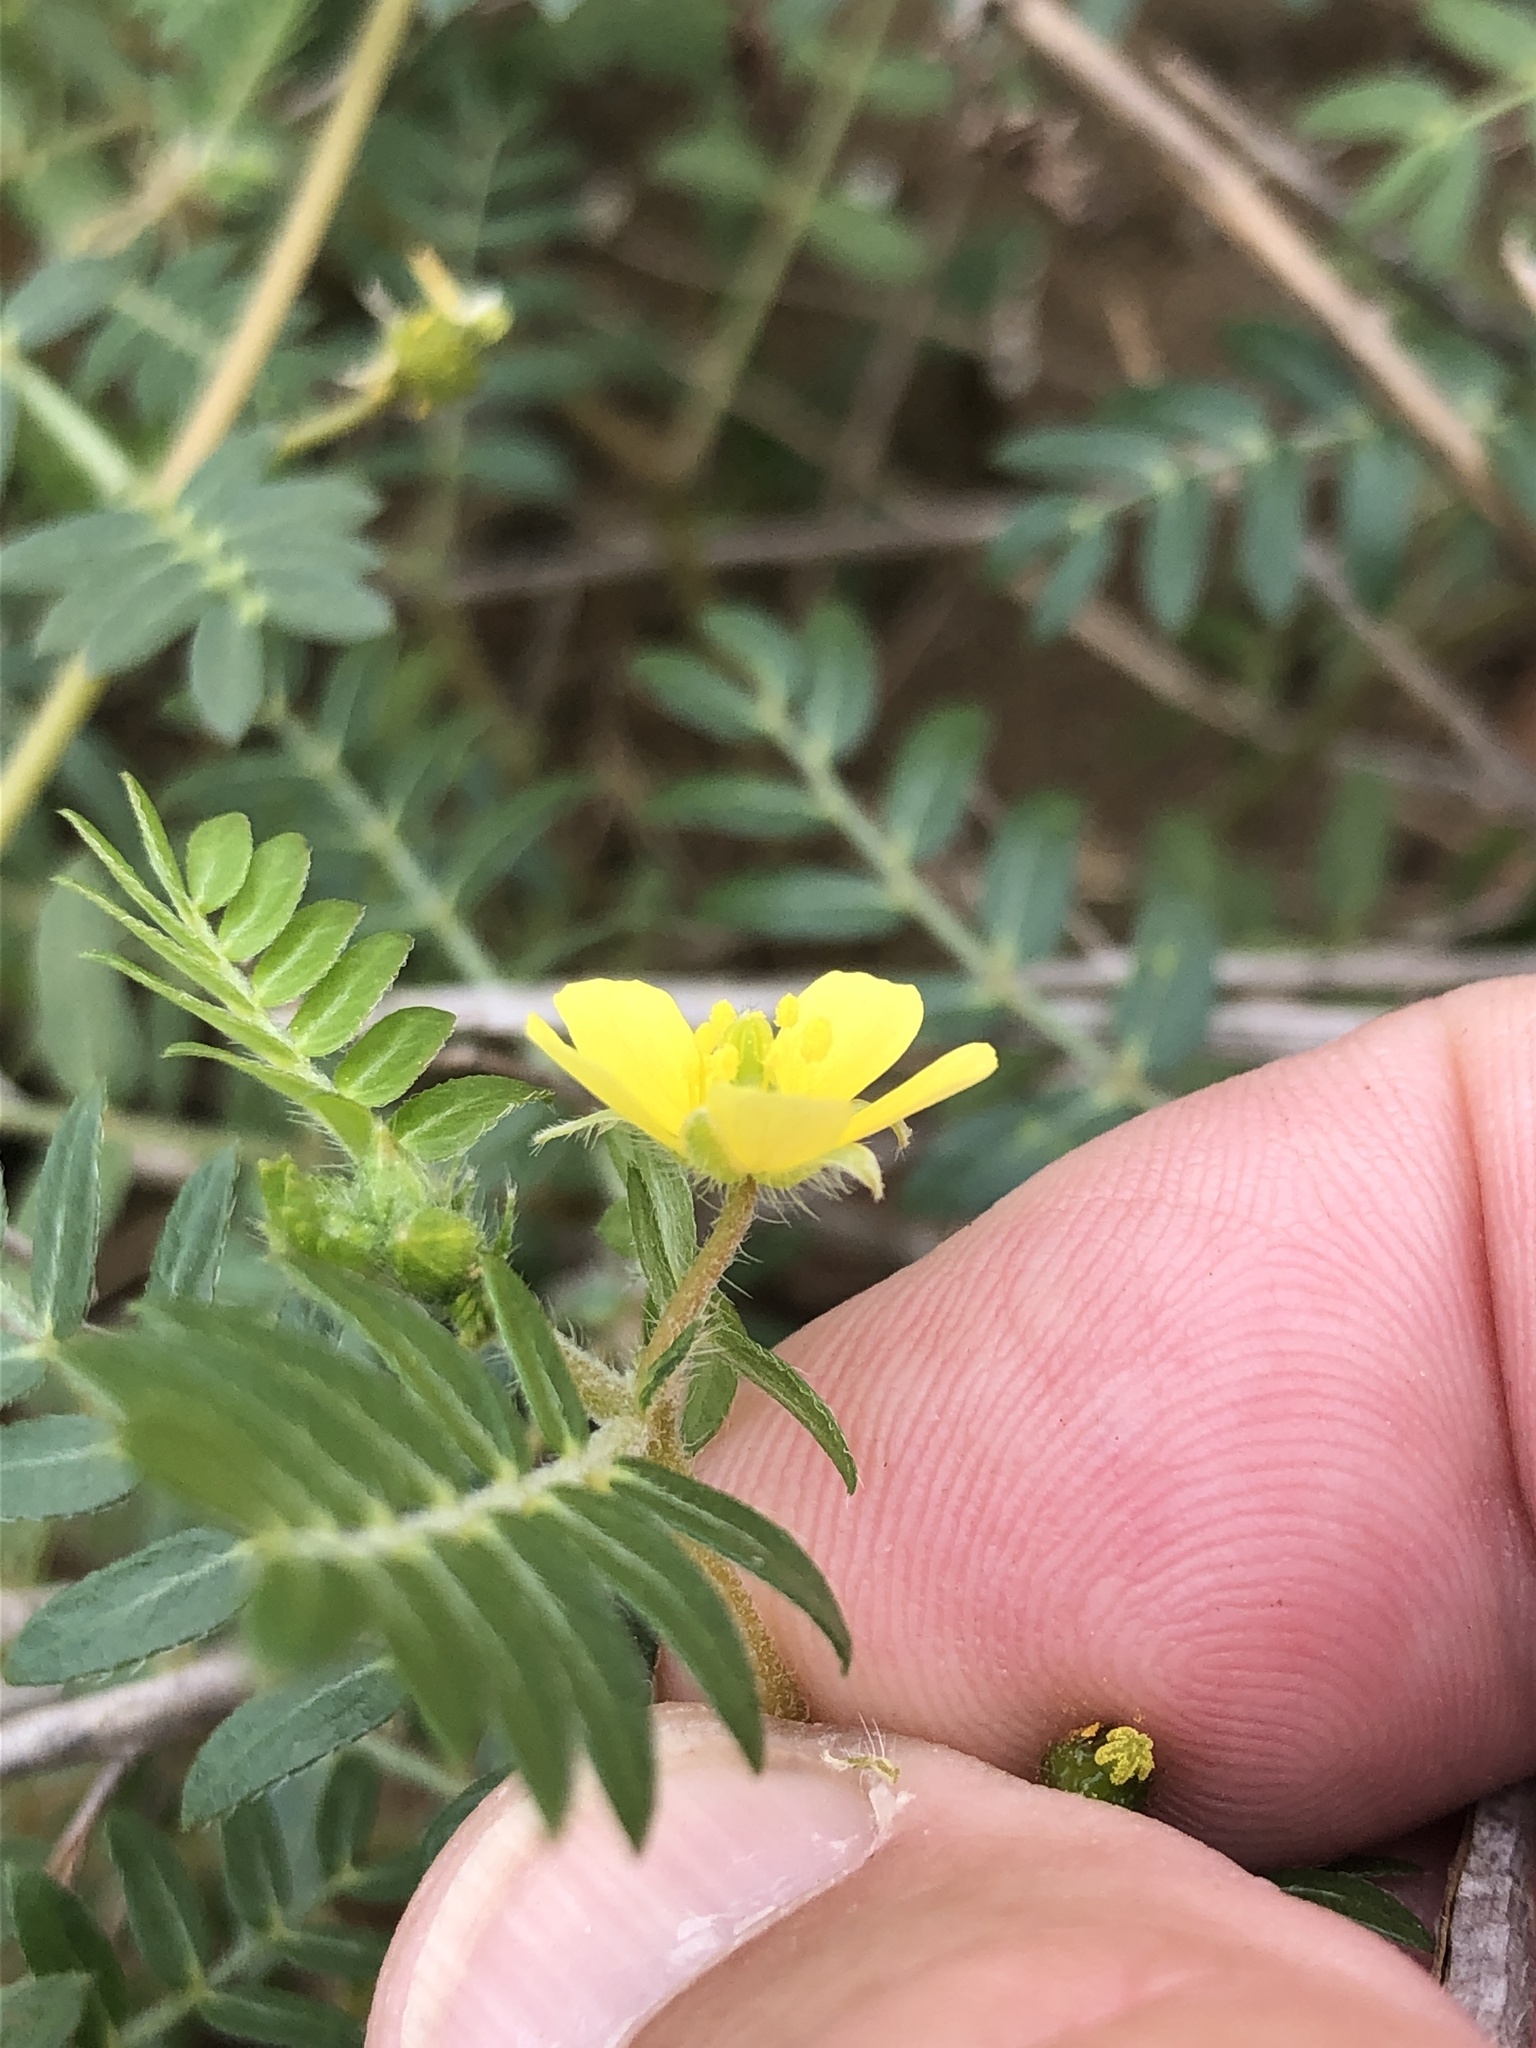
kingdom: Plantae
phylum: Tracheophyta
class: Magnoliopsida
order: Zygophyllales
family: Zygophyllaceae
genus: Tribulus
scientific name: Tribulus terrestris
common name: Puncturevine
